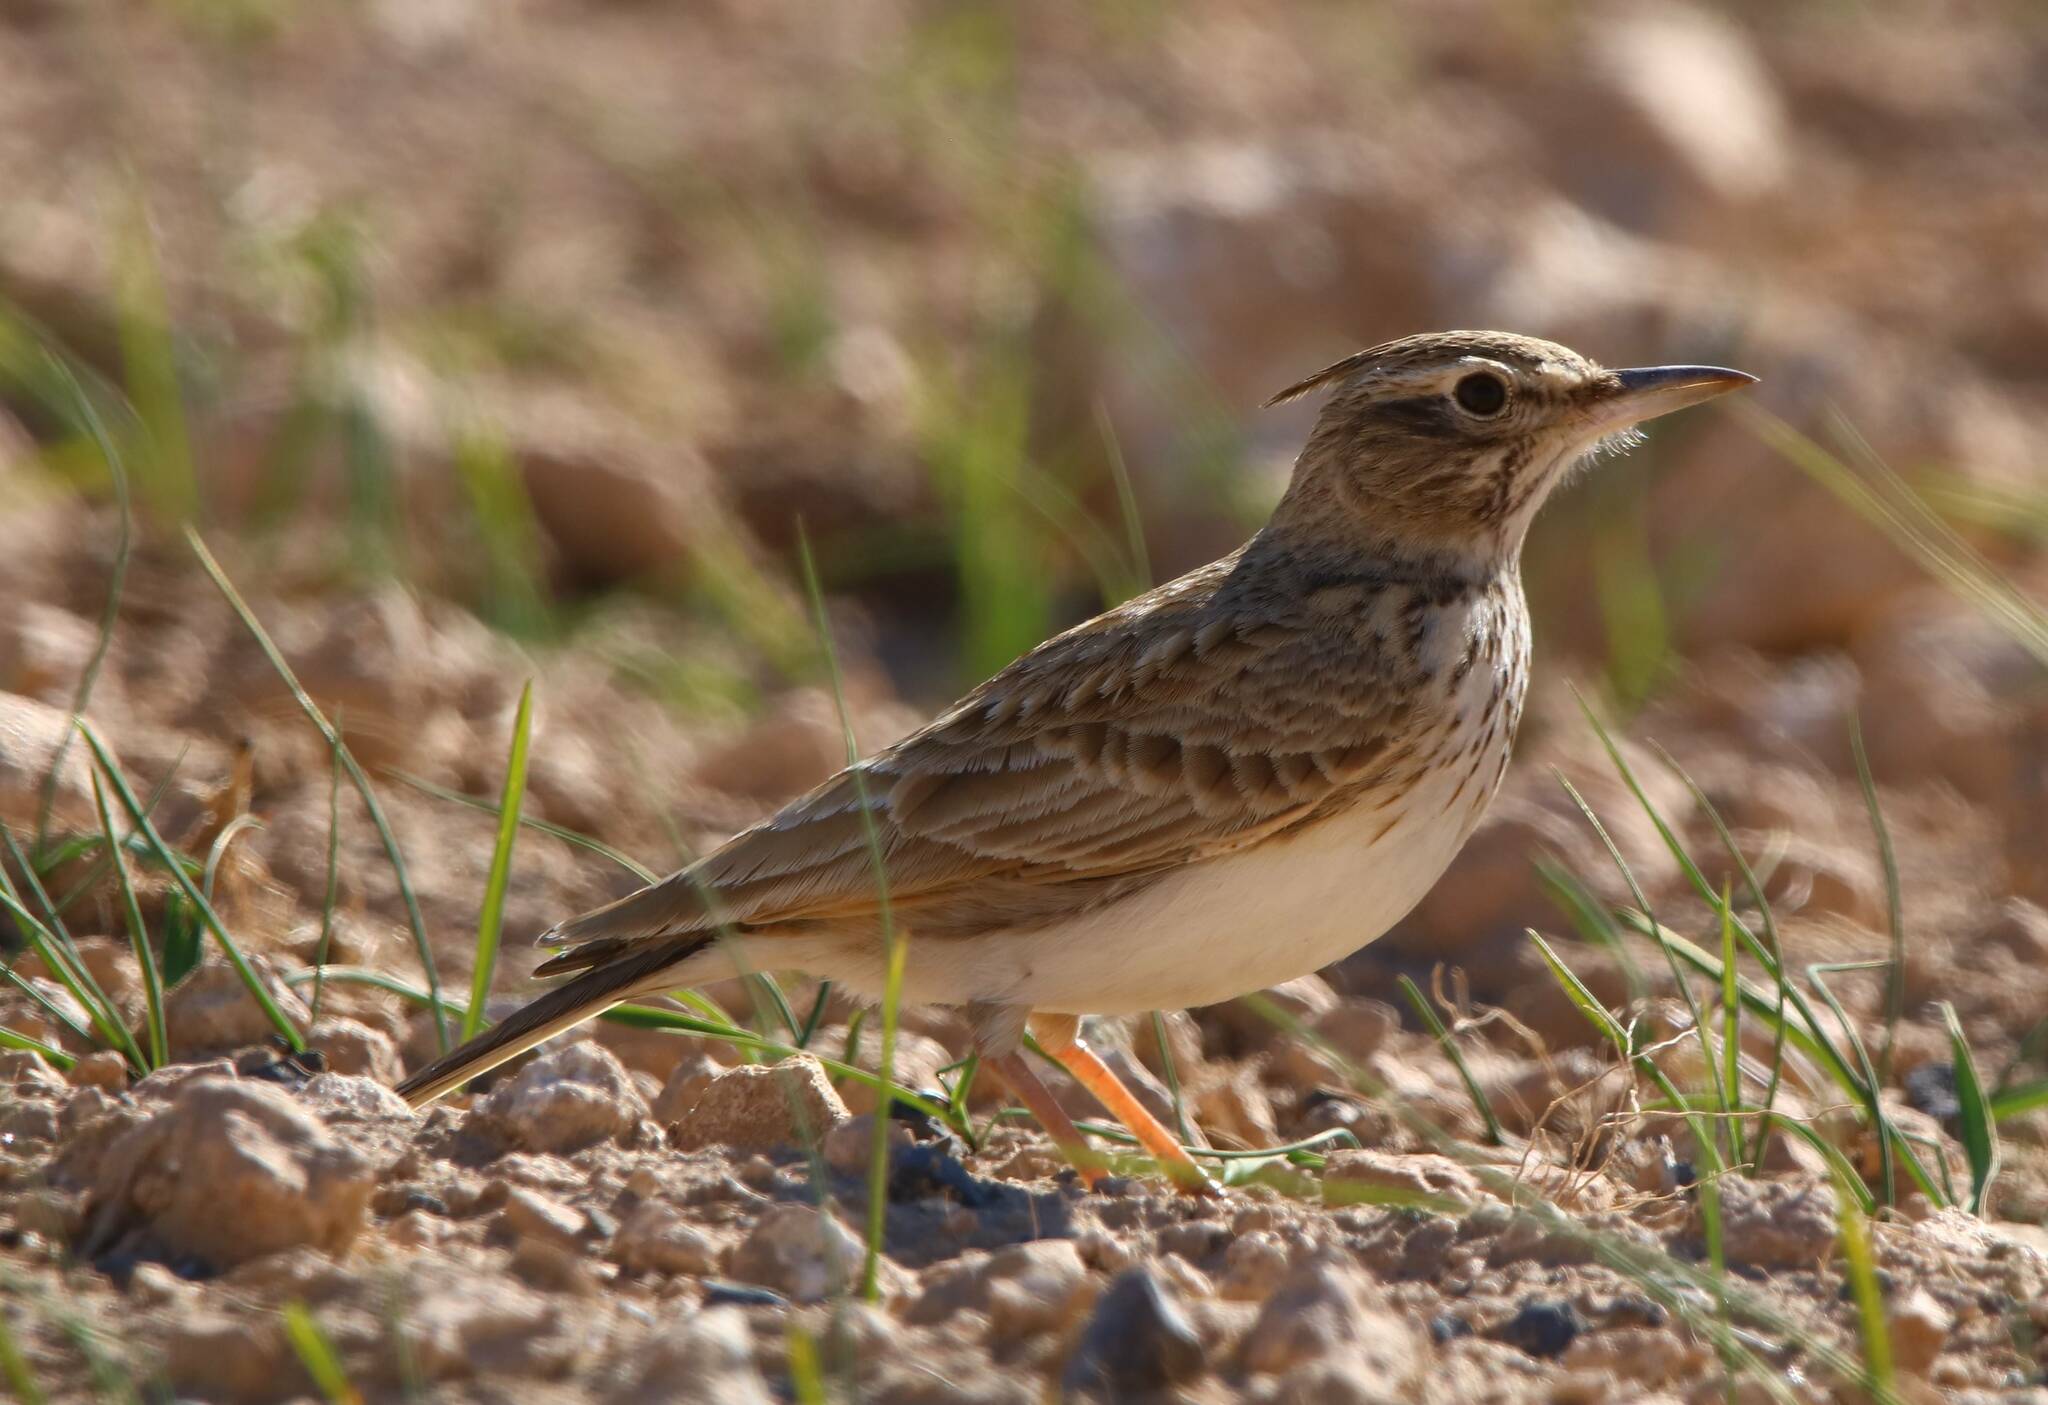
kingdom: Animalia
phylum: Chordata
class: Aves
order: Passeriformes
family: Alaudidae
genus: Galerida
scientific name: Galerida cristata
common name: Crested lark
